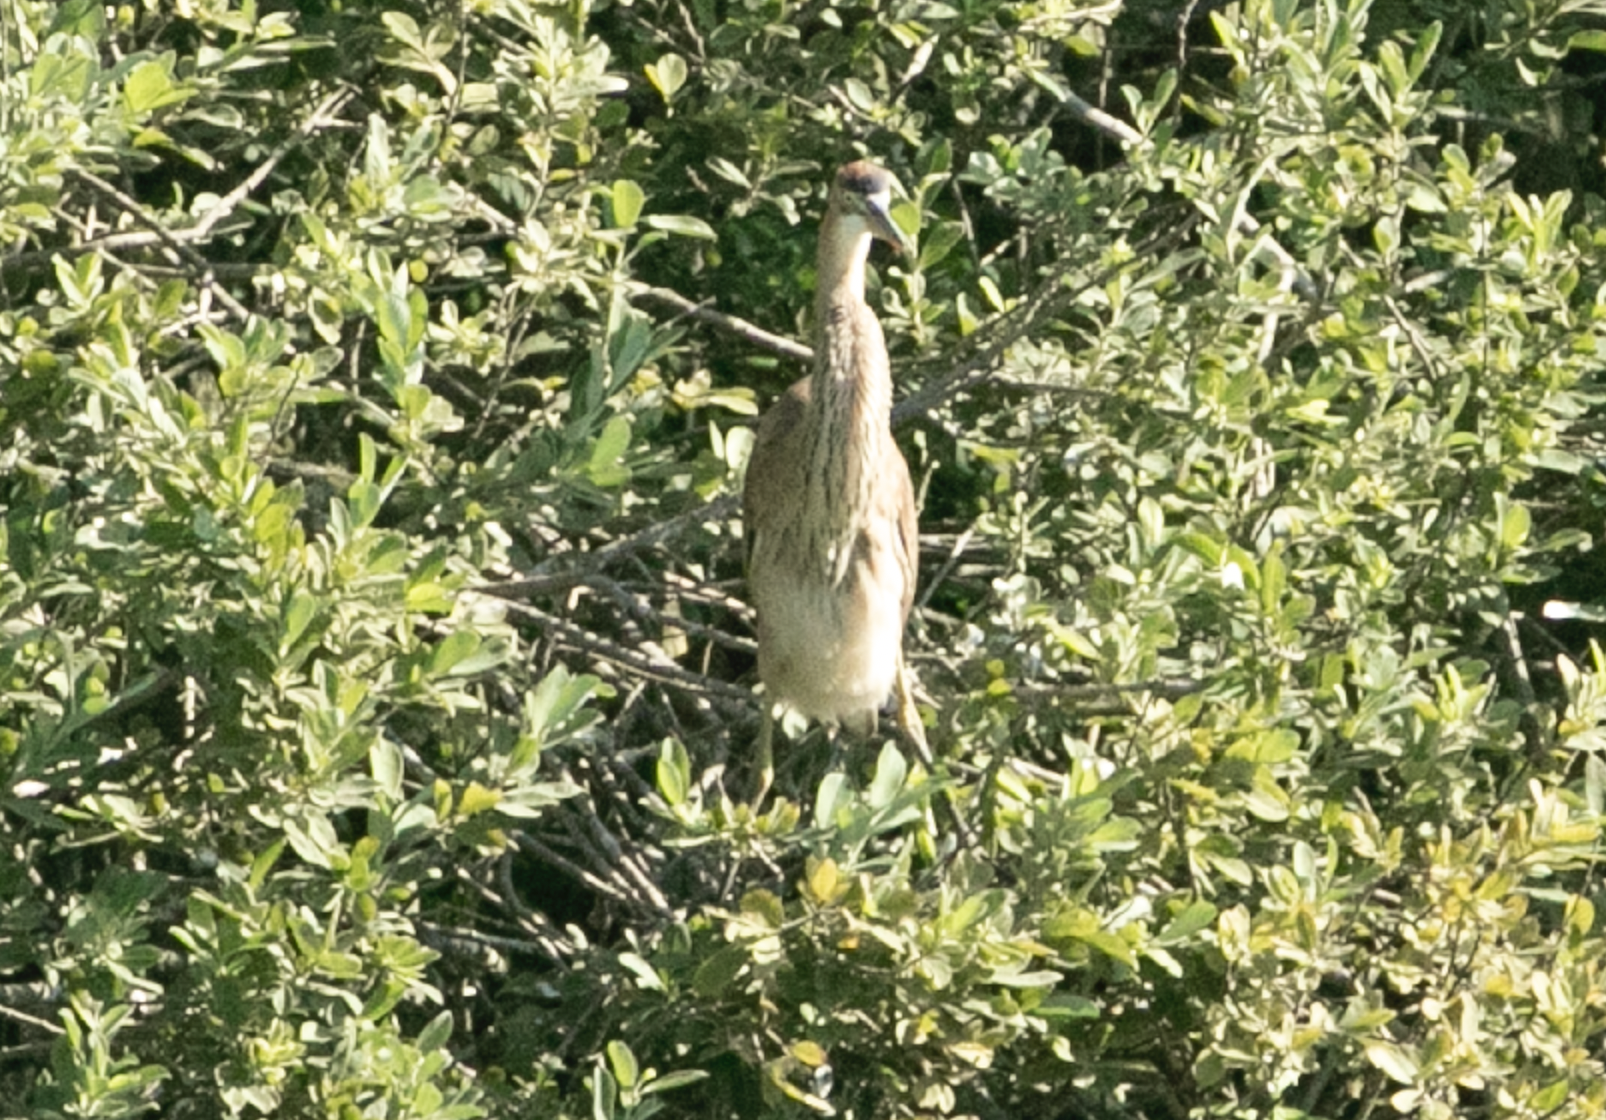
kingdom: Animalia
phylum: Chordata
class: Aves
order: Pelecaniformes
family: Ardeidae
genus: Ardea
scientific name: Ardea purpurea
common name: Purple heron
